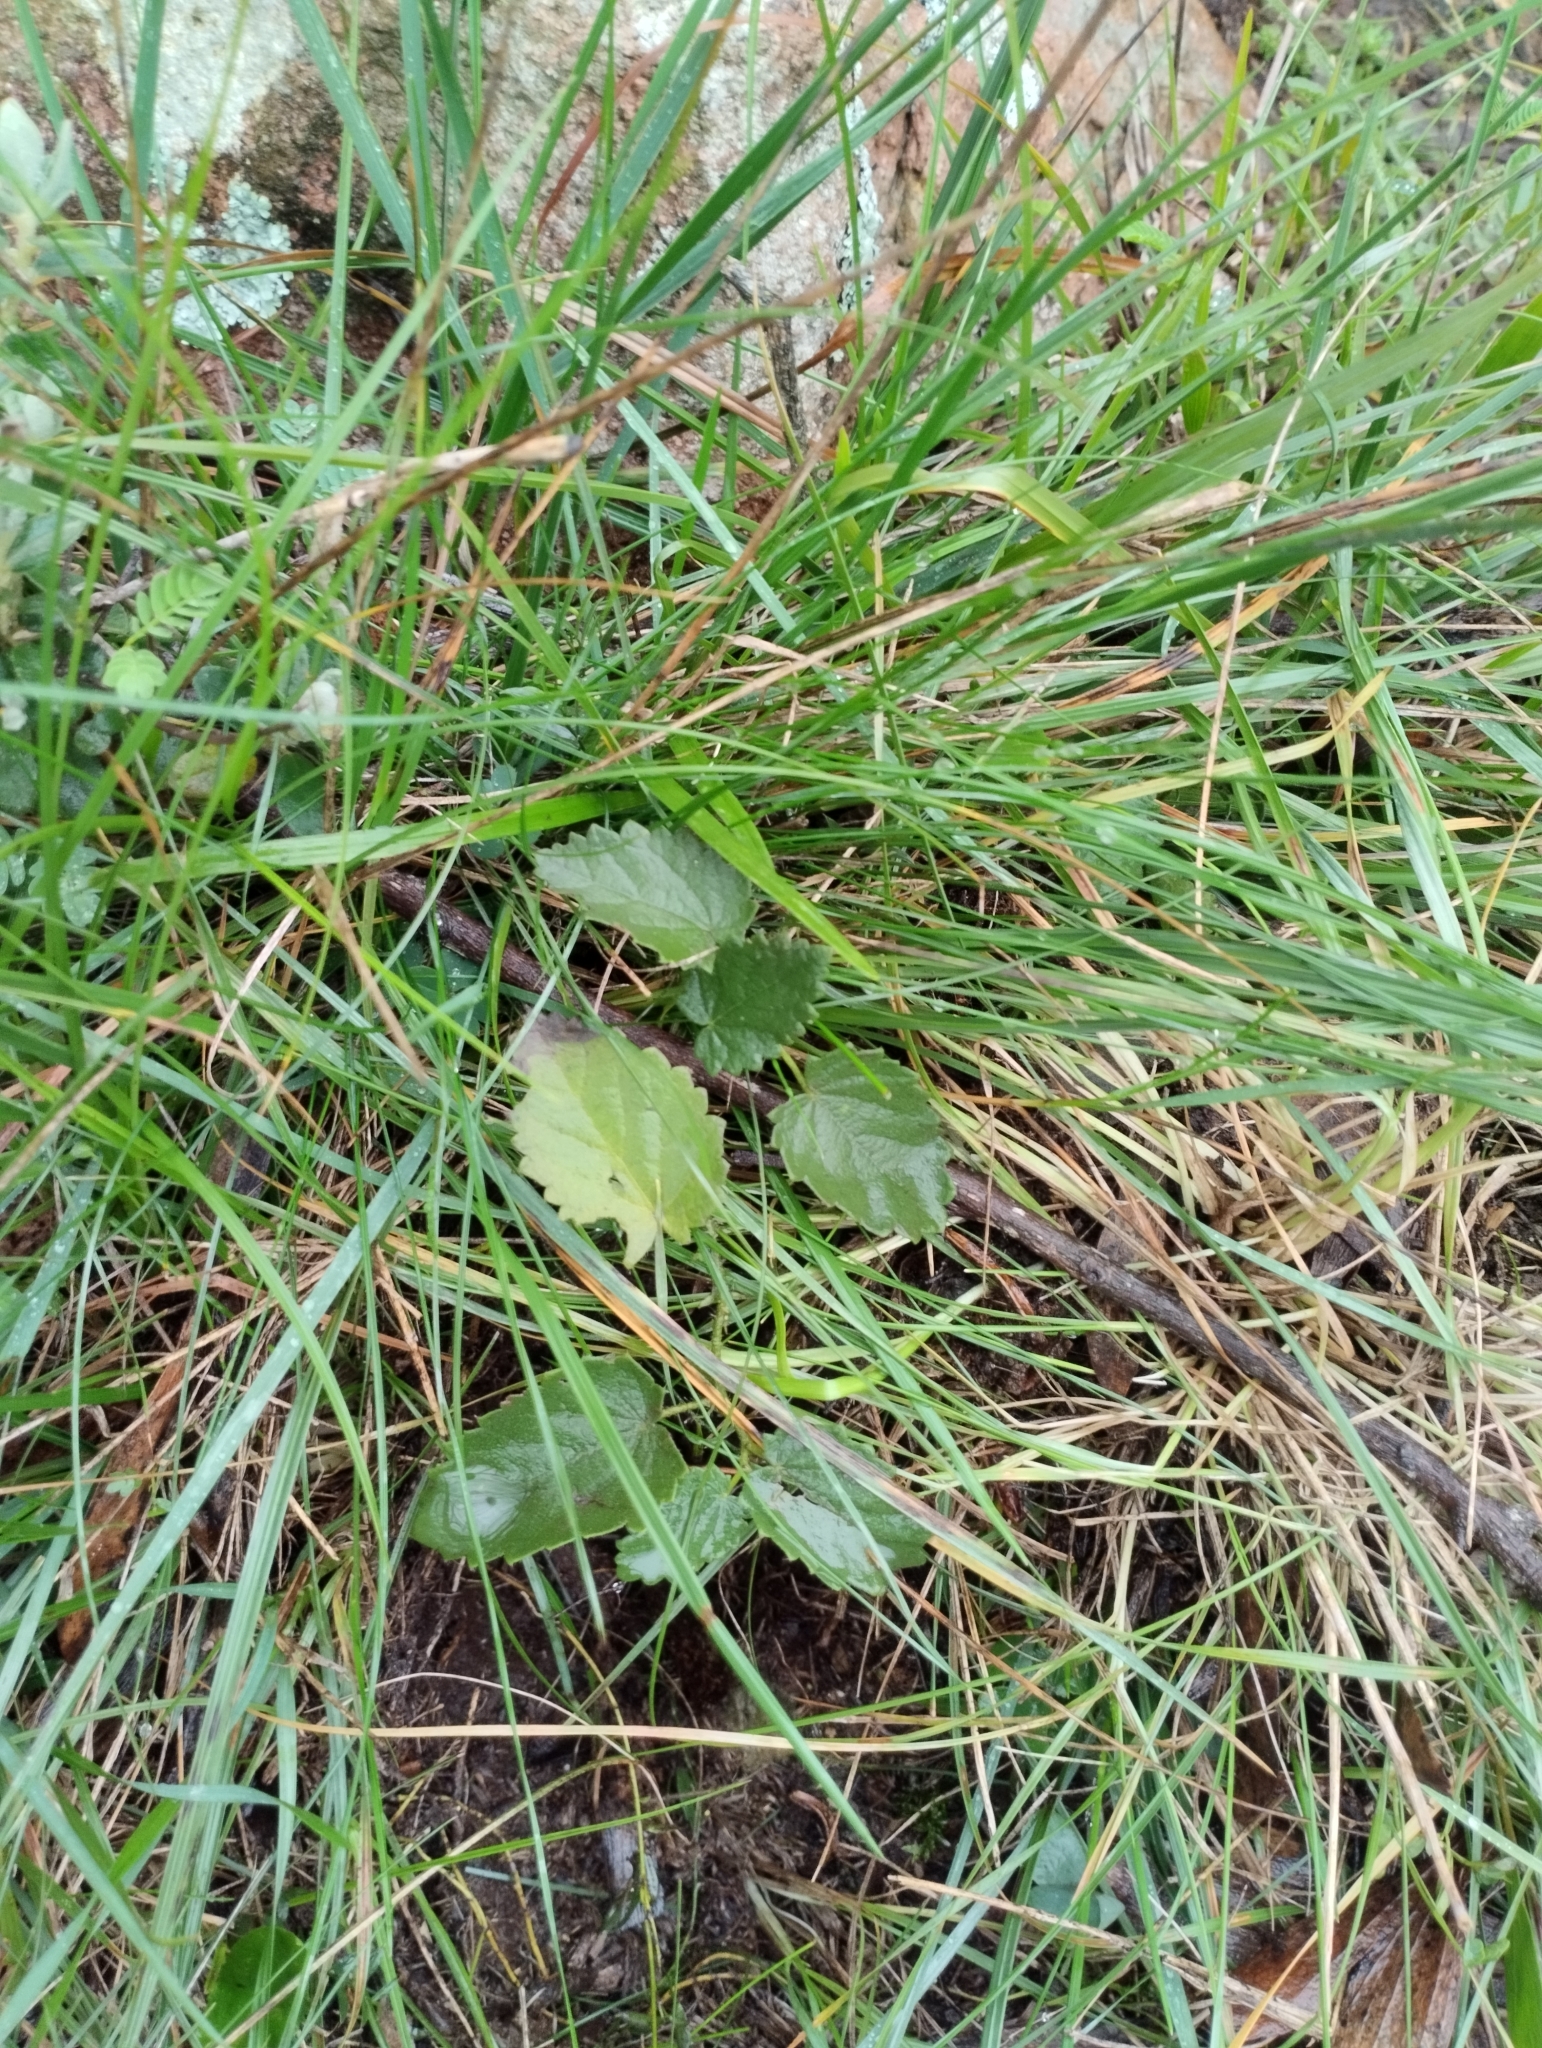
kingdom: Plantae
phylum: Tracheophyta
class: Magnoliopsida
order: Malvales
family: Malvaceae
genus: Krapovickasia
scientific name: Krapovickasia flavescens
